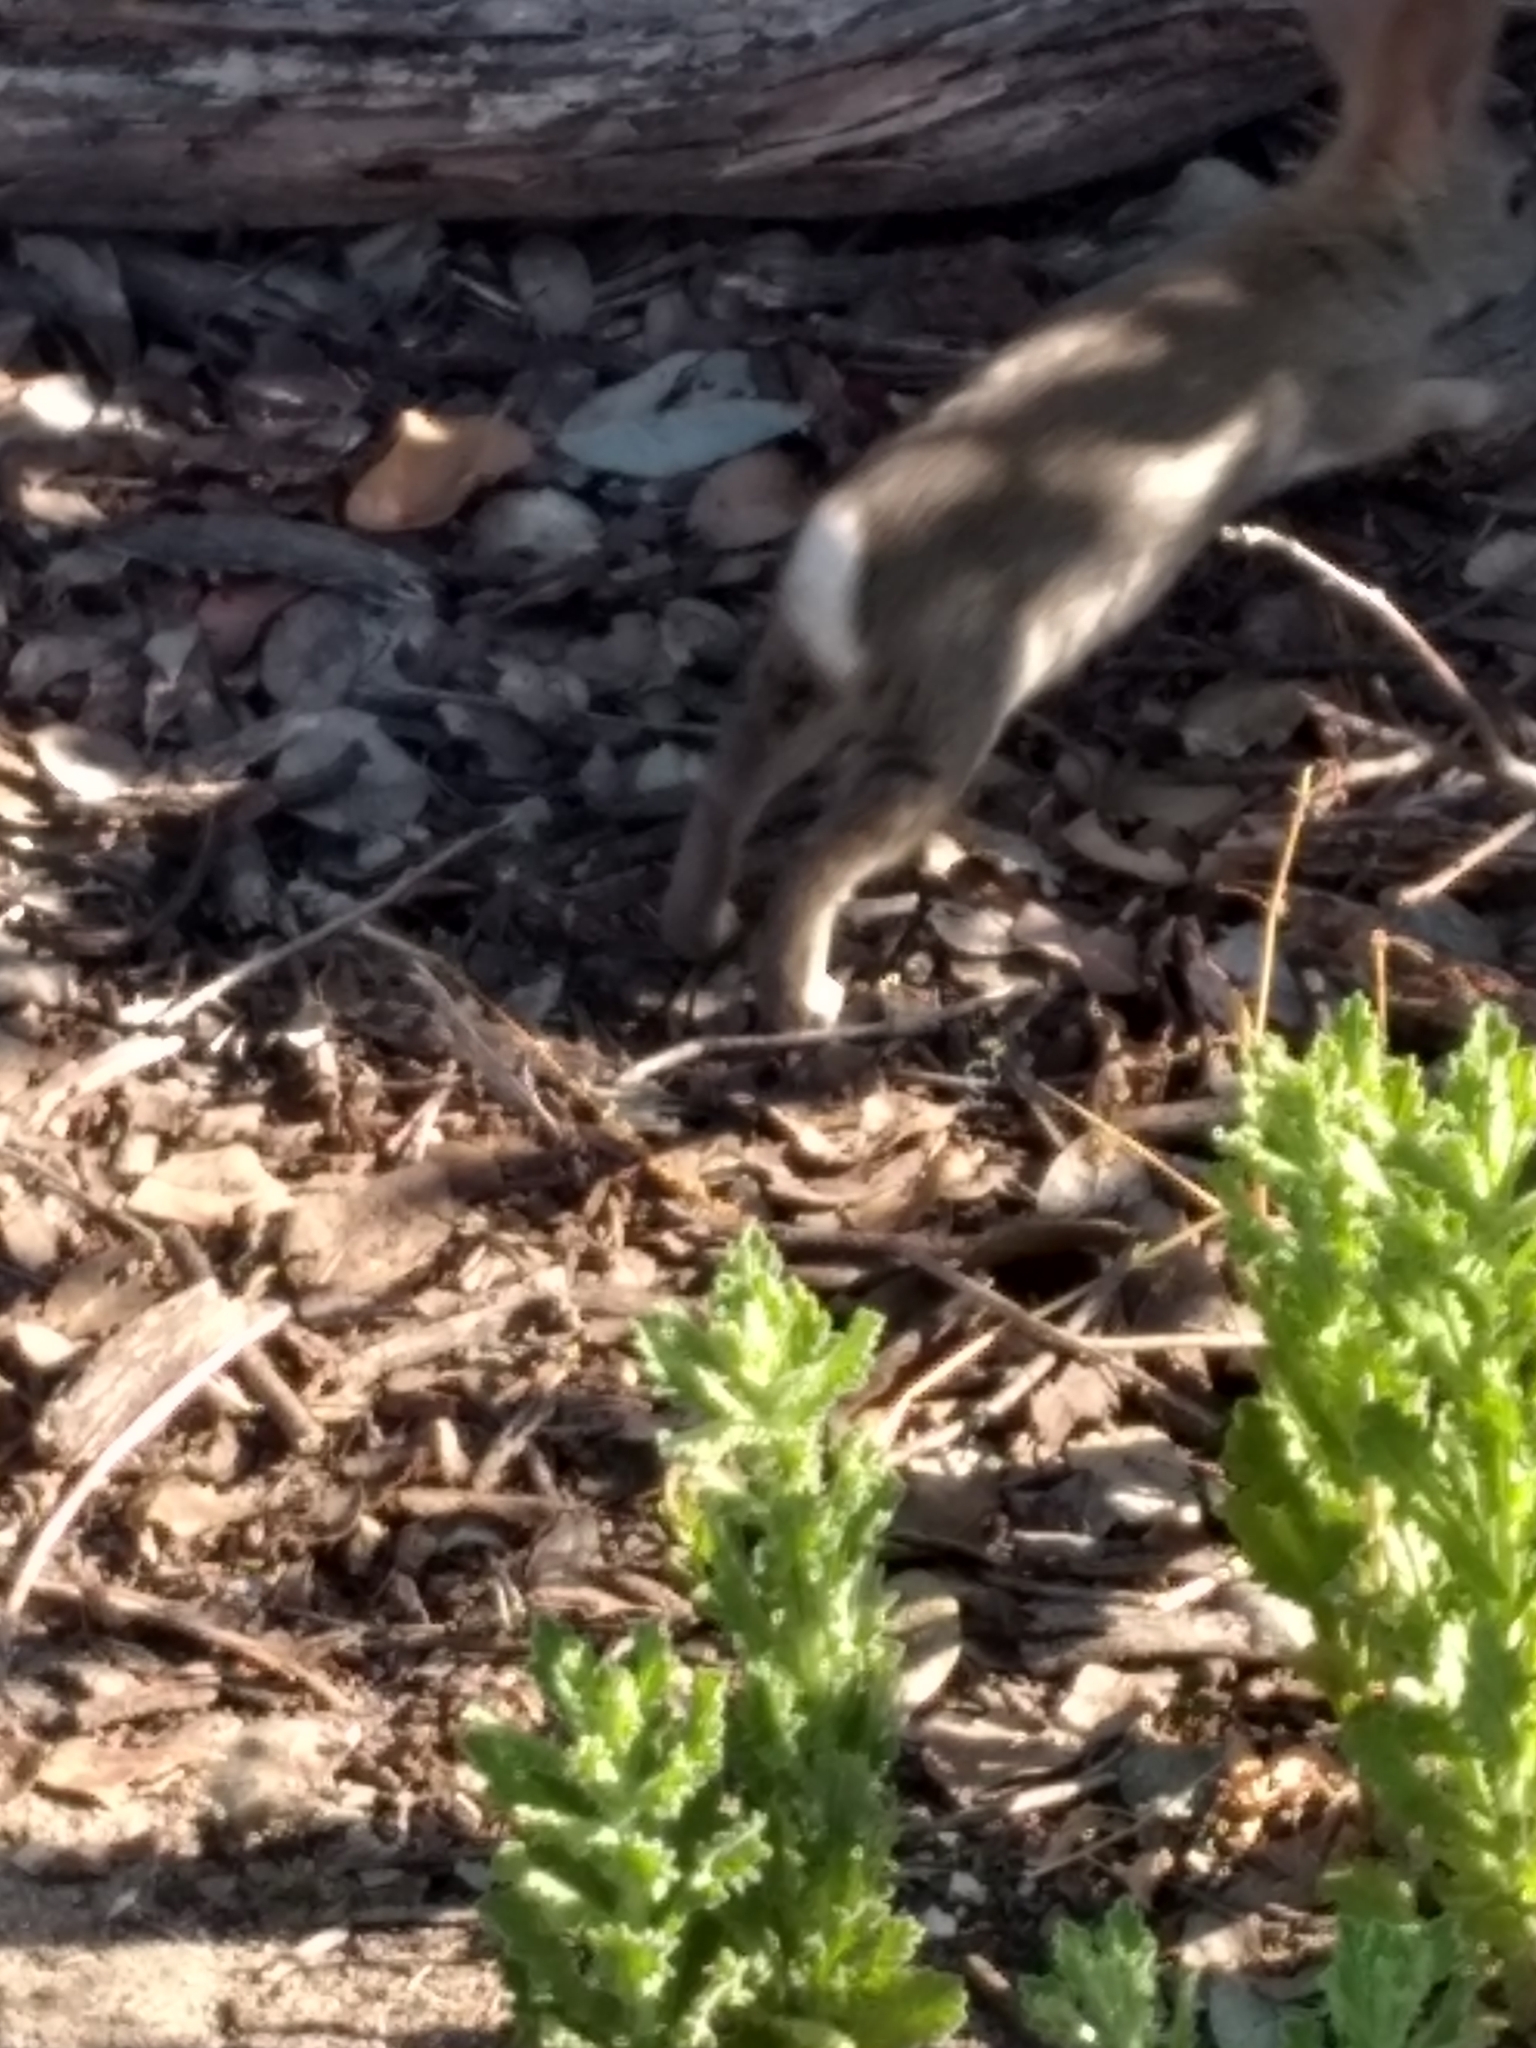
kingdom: Animalia
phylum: Chordata
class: Mammalia
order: Lagomorpha
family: Leporidae
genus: Sylvilagus
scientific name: Sylvilagus audubonii
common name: Desert cottontail
